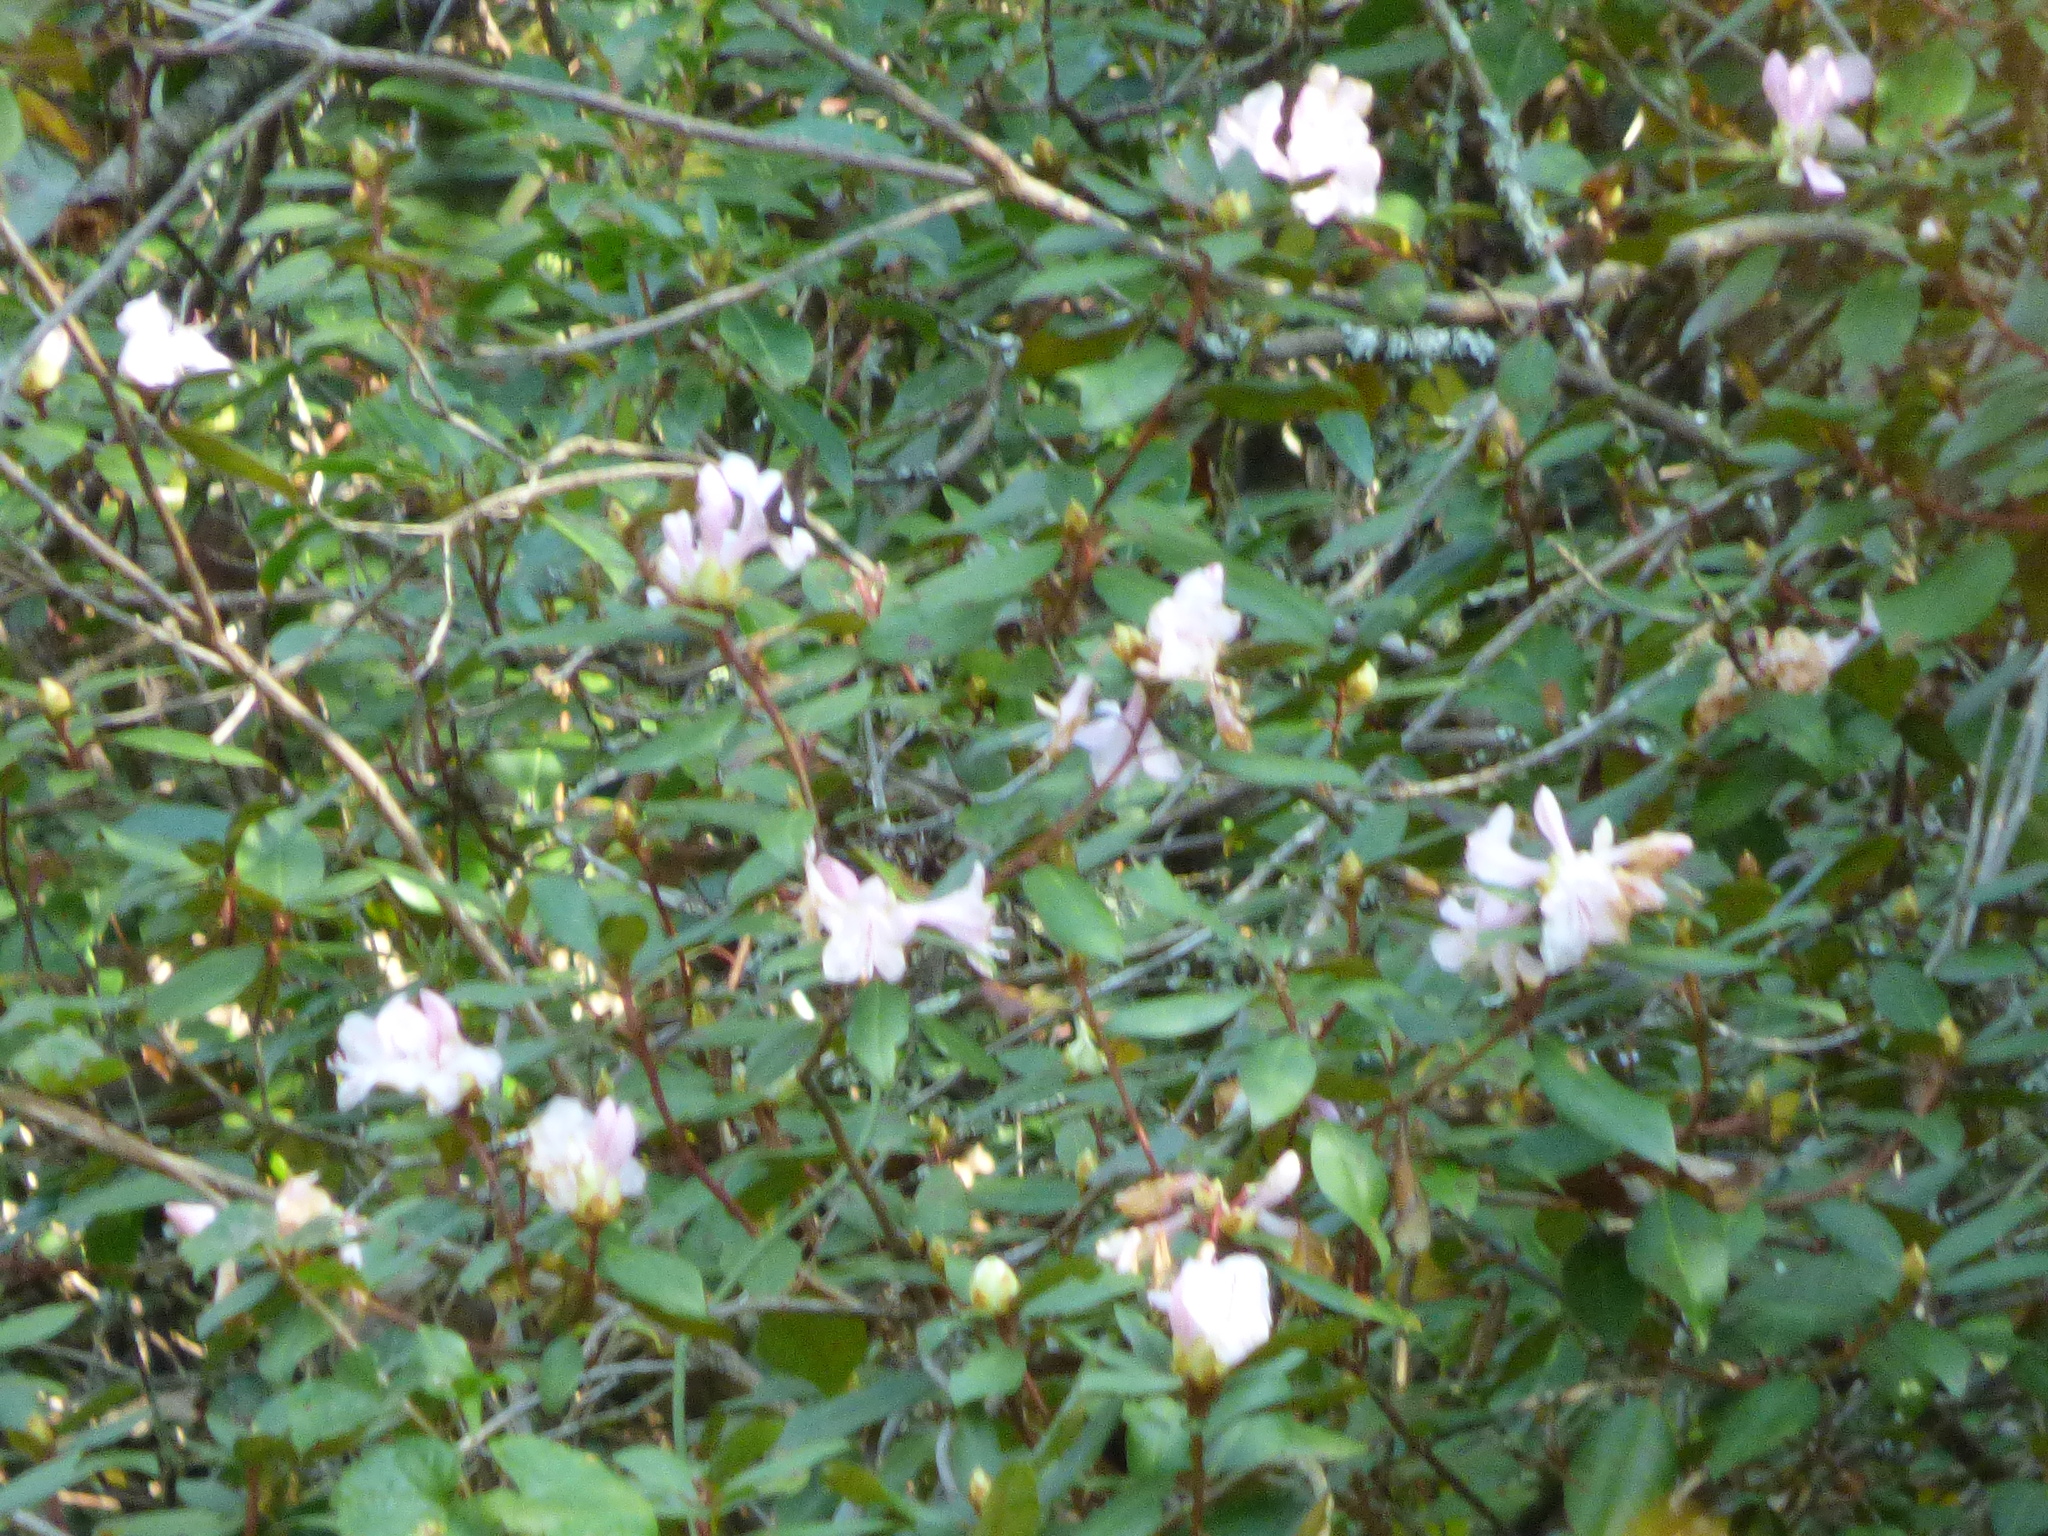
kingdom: Plantae
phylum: Tracheophyta
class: Magnoliopsida
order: Ericales
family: Ericaceae
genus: Rhododendron
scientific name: Rhododendron minus
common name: Piedmont rhododendron
